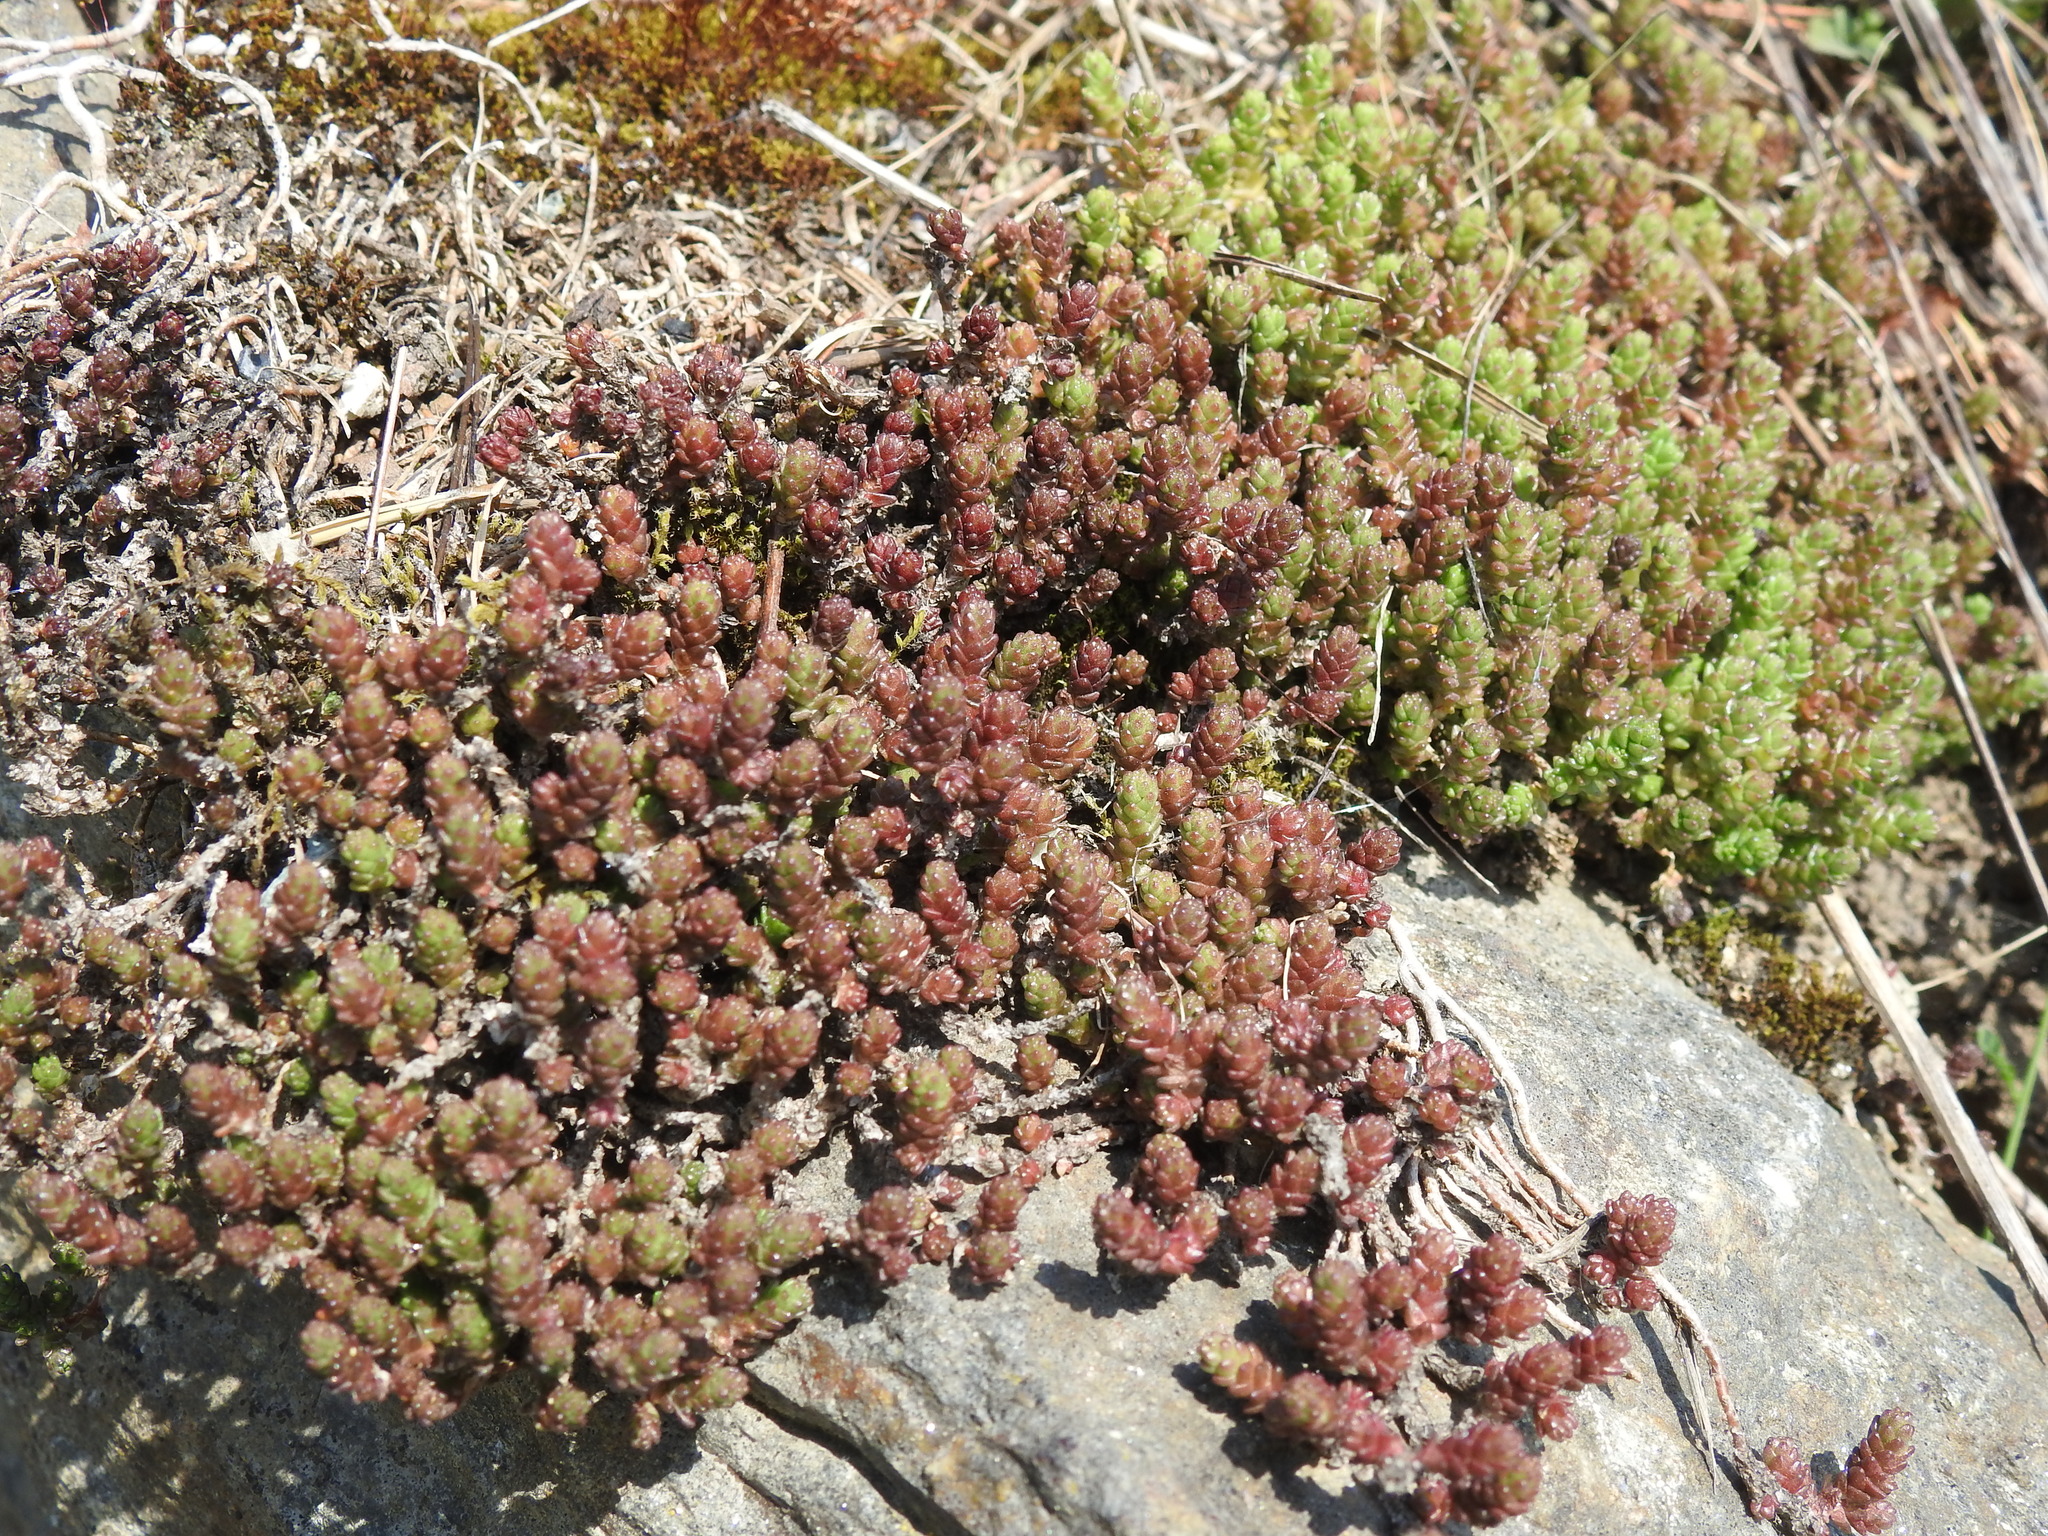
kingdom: Plantae
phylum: Tracheophyta
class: Magnoliopsida
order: Saxifragales
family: Crassulaceae
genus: Sedum
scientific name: Sedum acre
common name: Biting stonecrop
